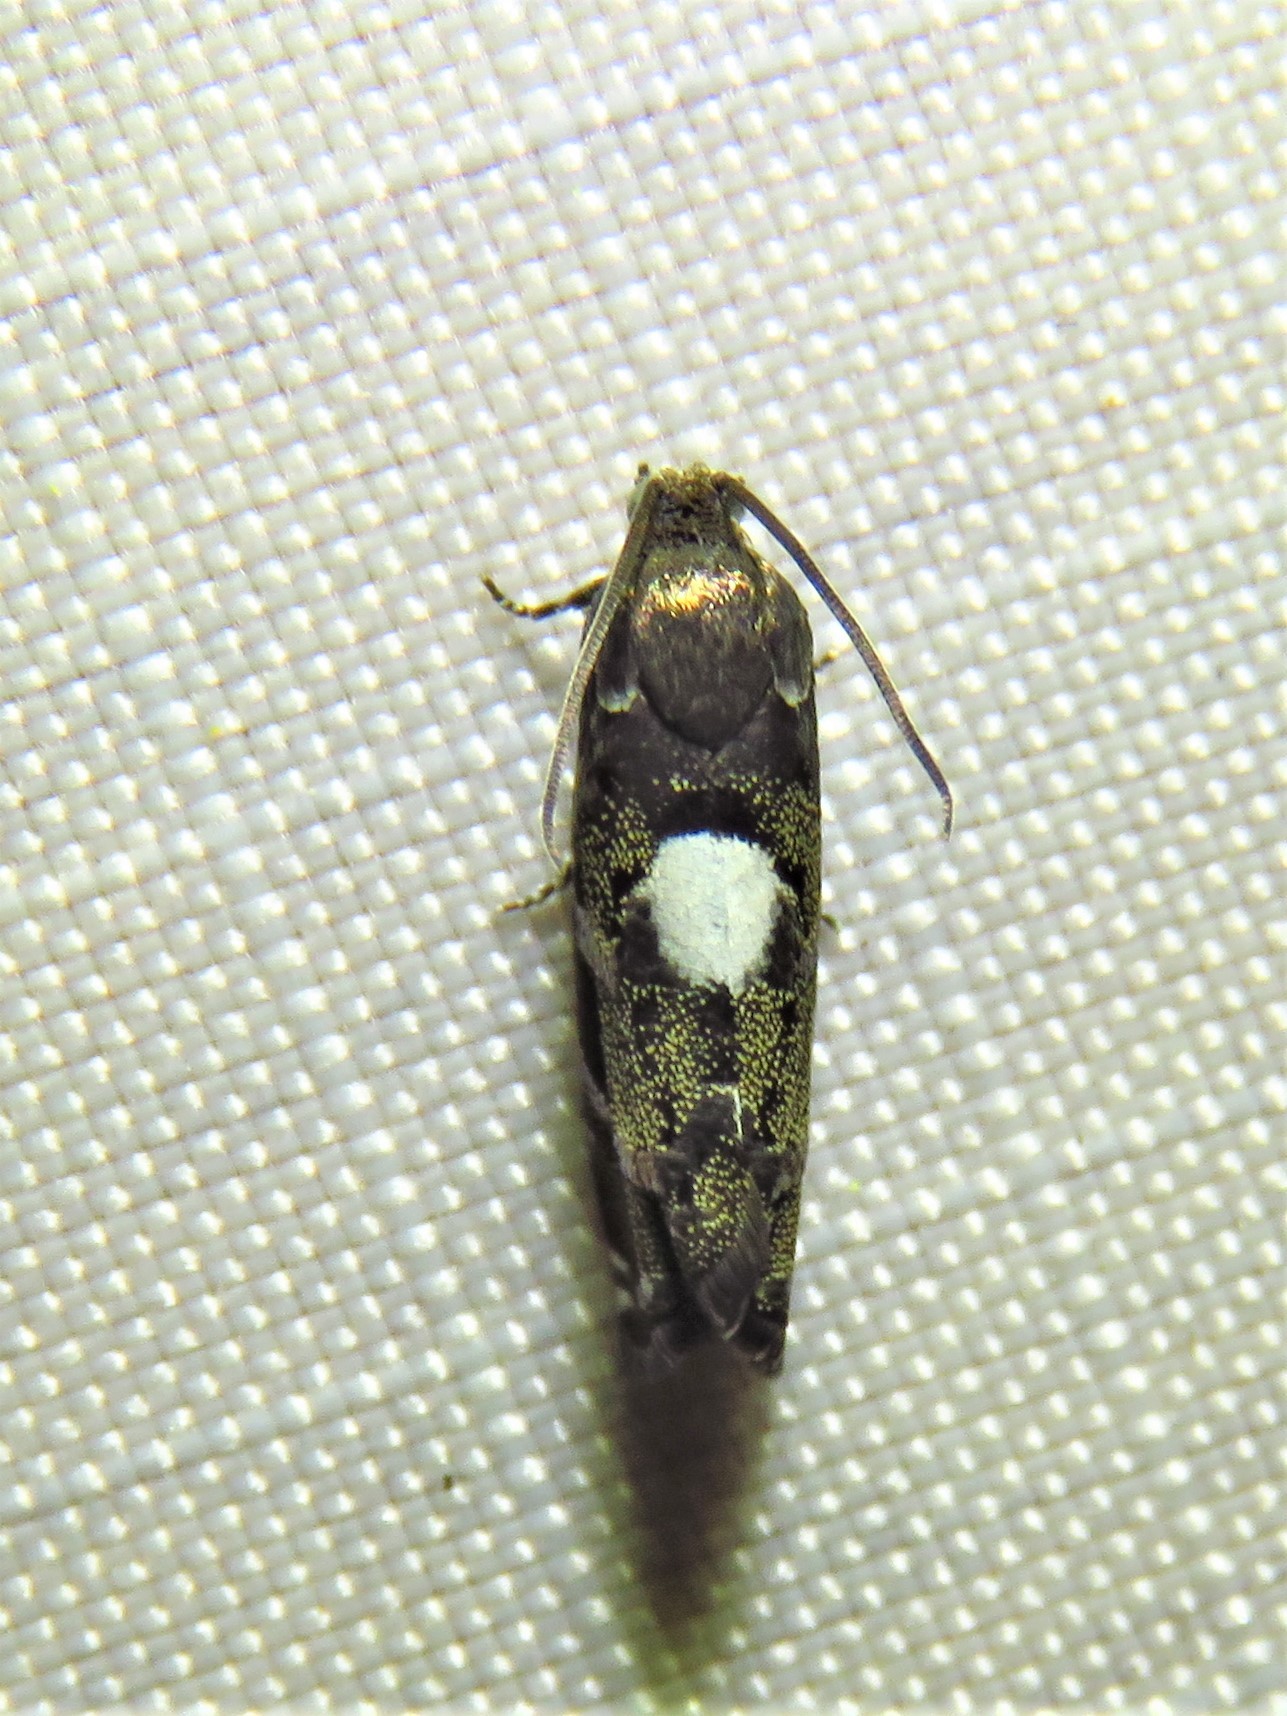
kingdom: Animalia
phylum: Arthropoda
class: Insecta
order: Lepidoptera
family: Tortricidae
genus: Cydia
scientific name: Cydia albimaculana
